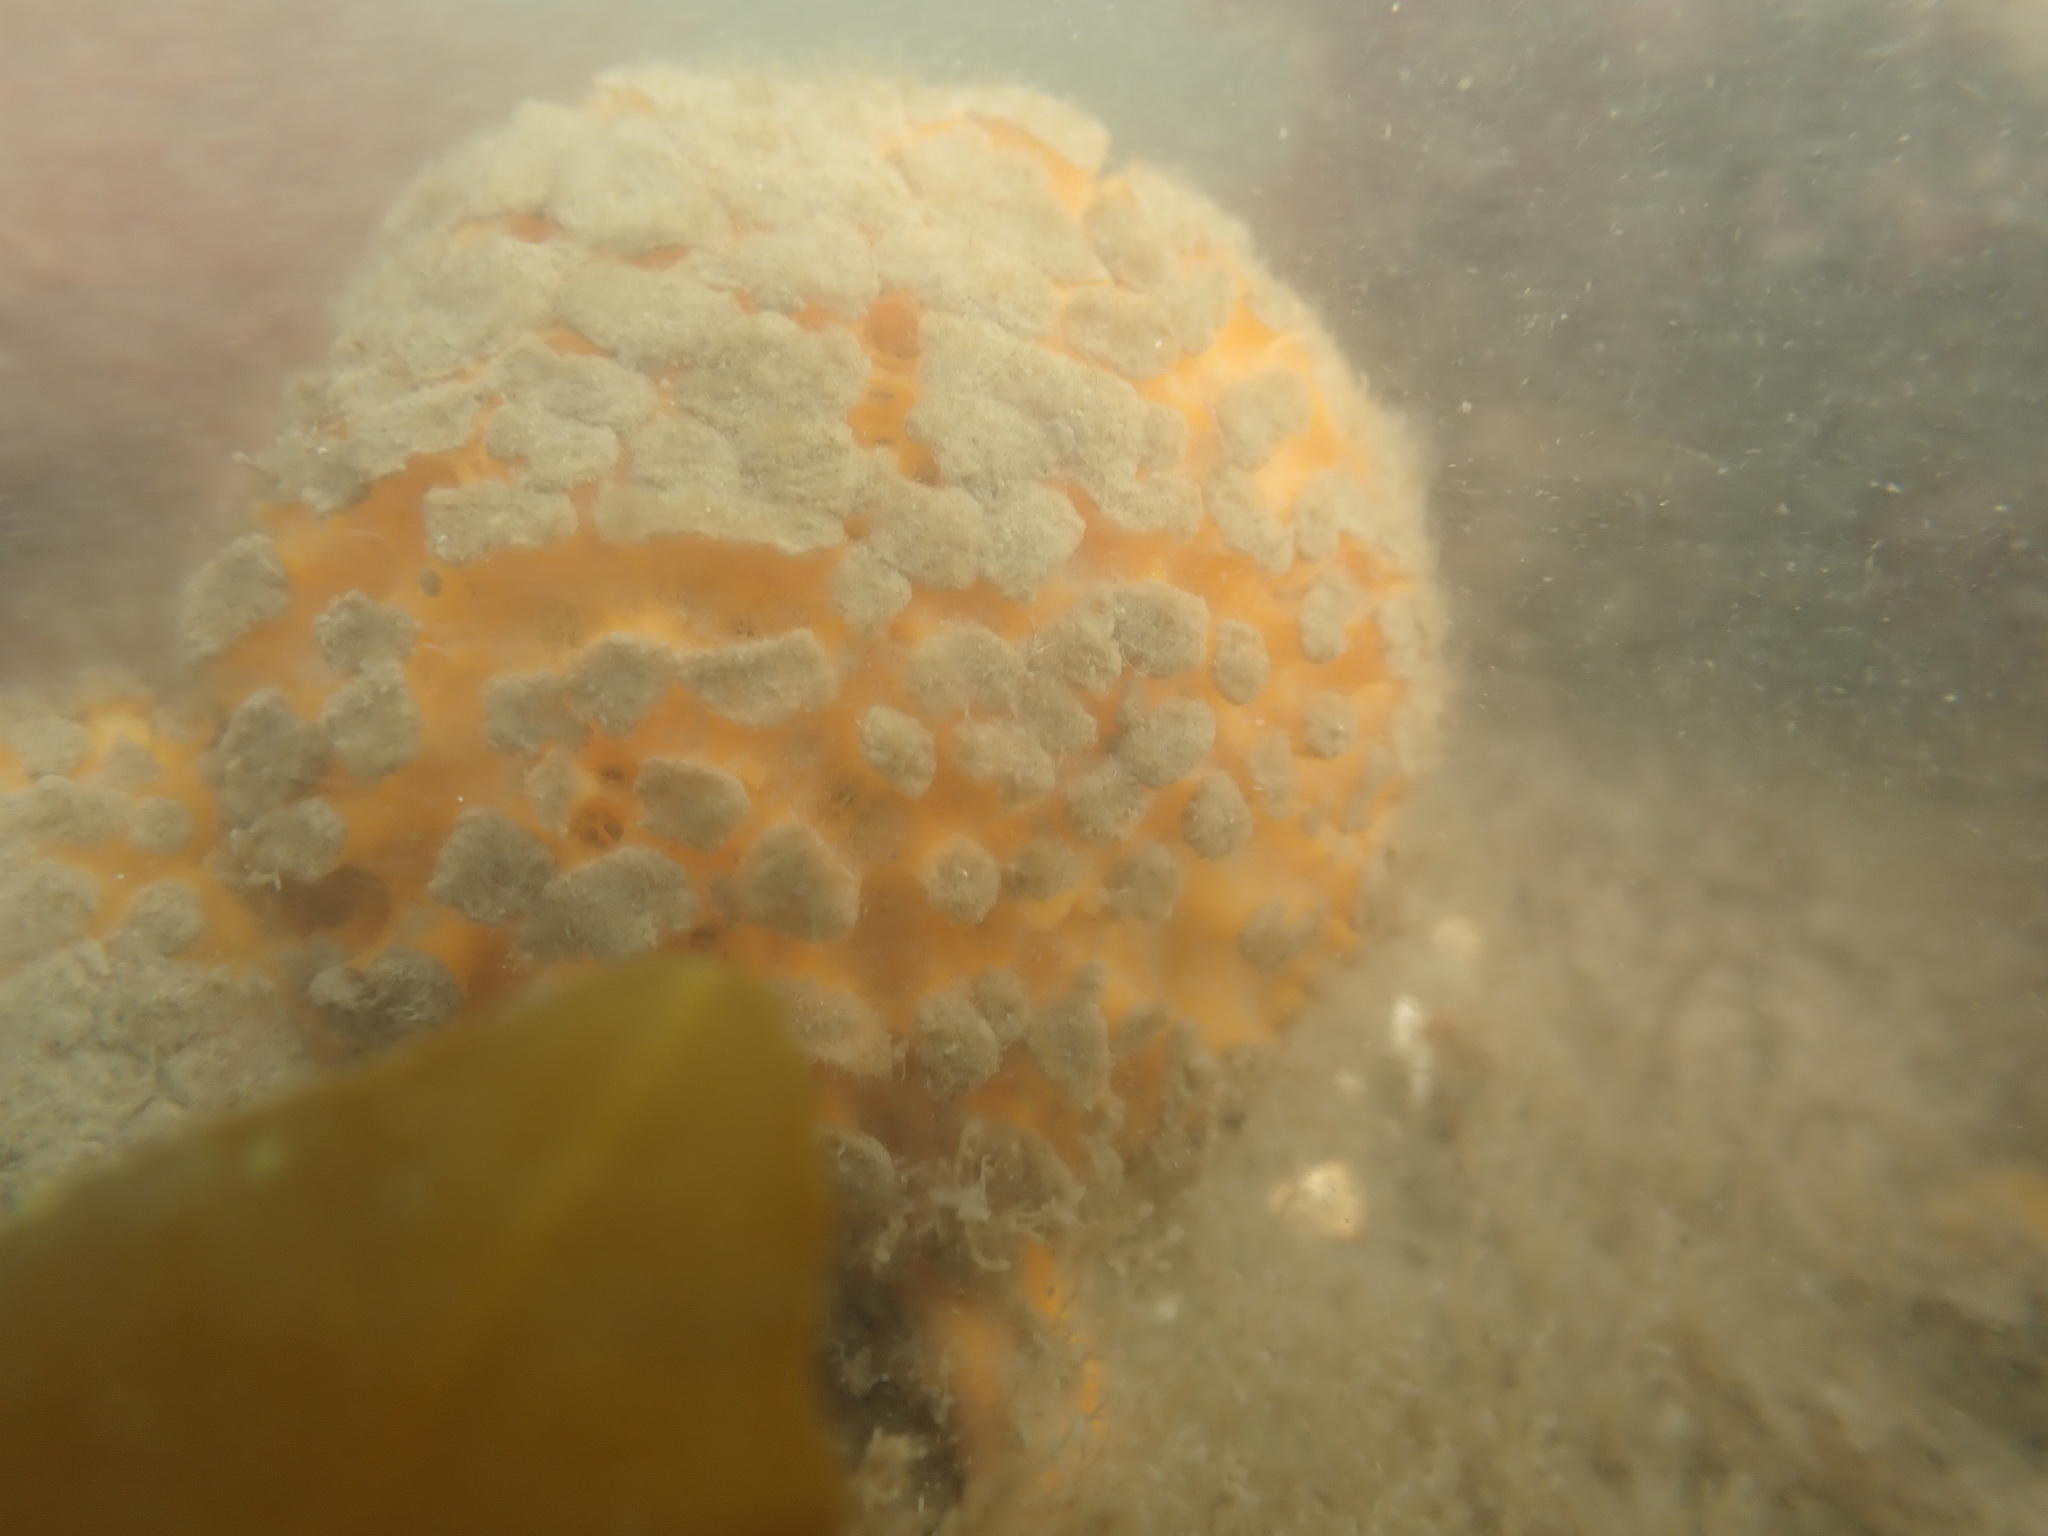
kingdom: Animalia
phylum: Porifera
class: Demospongiae
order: Tethyida
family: Tethyidae
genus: Tethya
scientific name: Tethya burtoni
